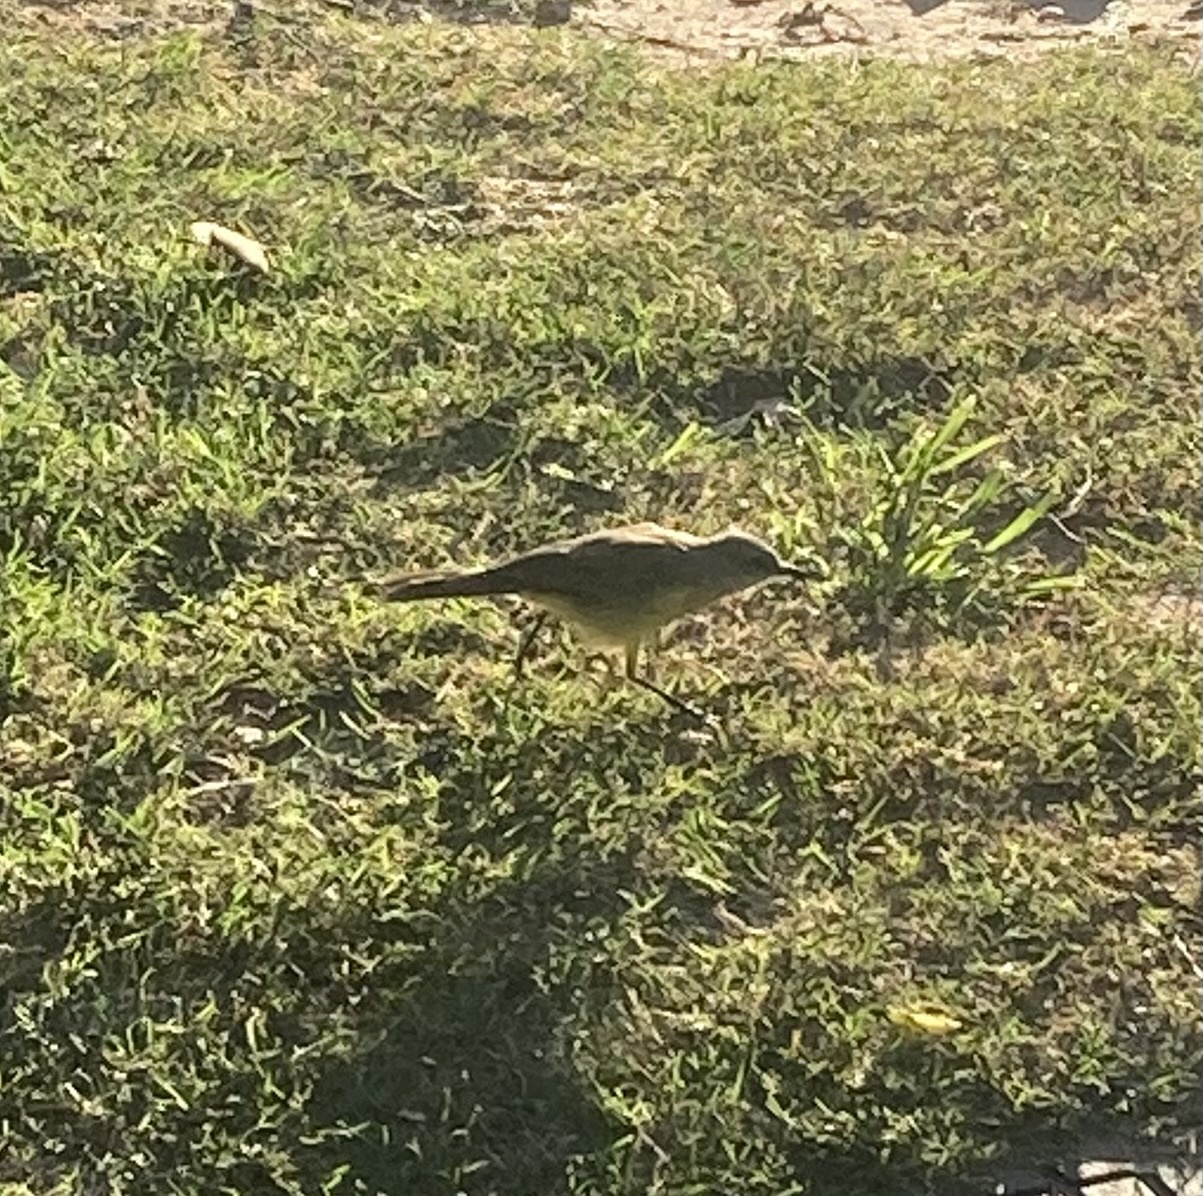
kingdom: Animalia
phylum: Chordata
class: Aves
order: Passeriformes
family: Tyrannidae
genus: Machetornis
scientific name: Machetornis rixosa
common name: Cattle tyrant
